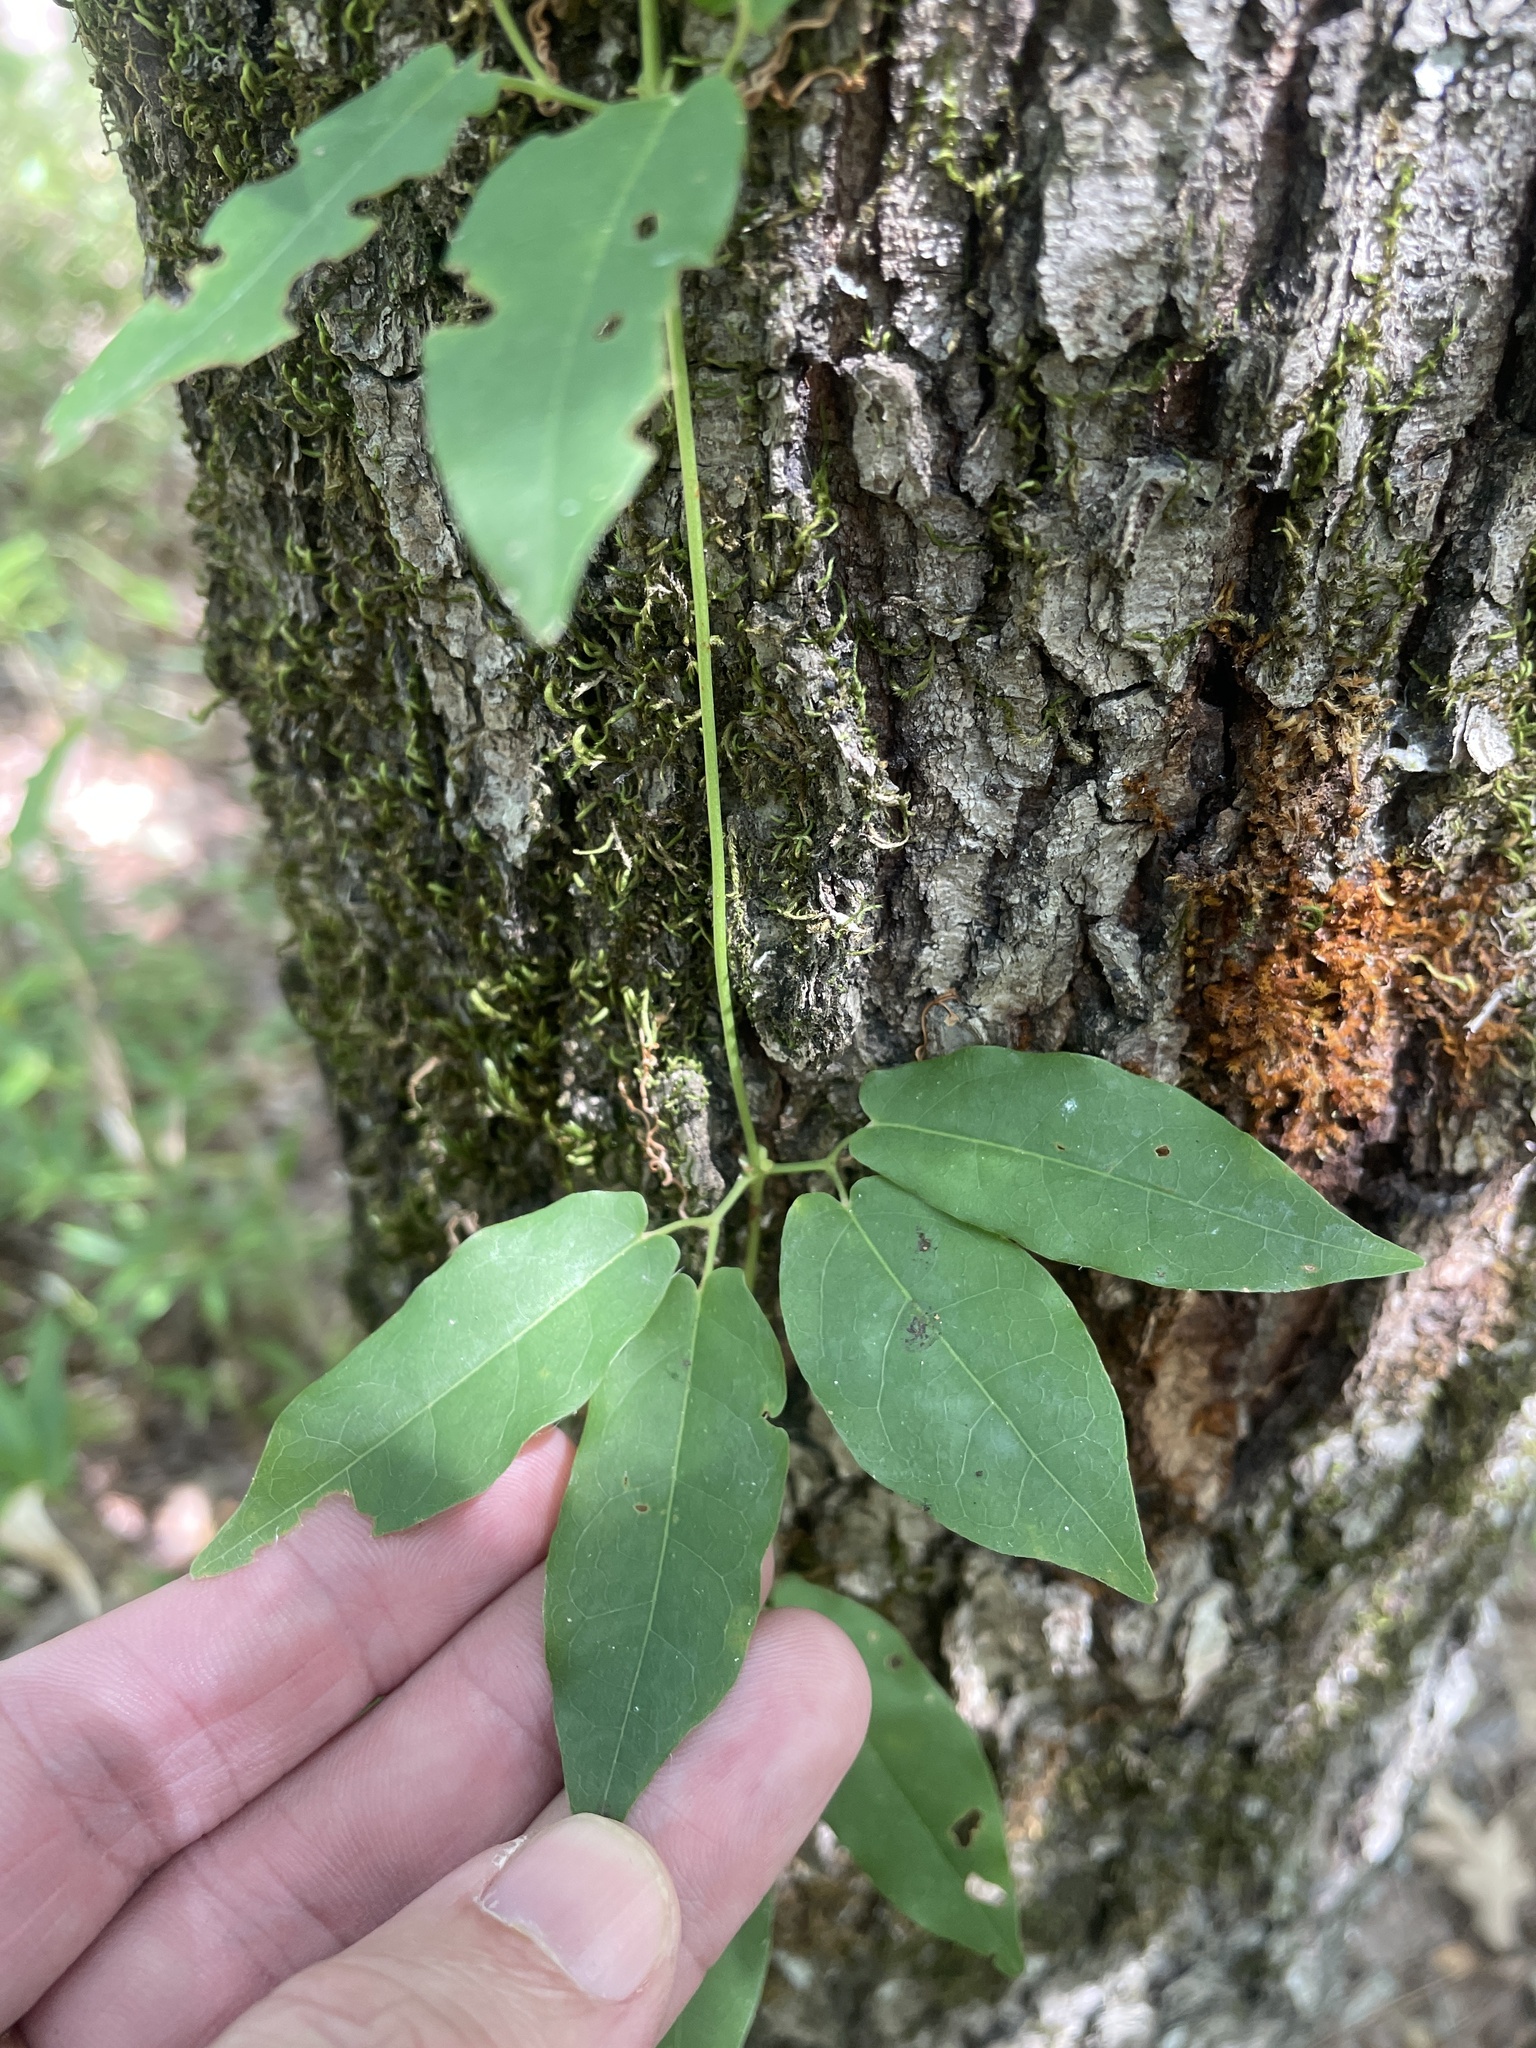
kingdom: Plantae
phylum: Tracheophyta
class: Magnoliopsida
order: Lamiales
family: Bignoniaceae
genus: Bignonia
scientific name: Bignonia capreolata
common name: Crossvine
